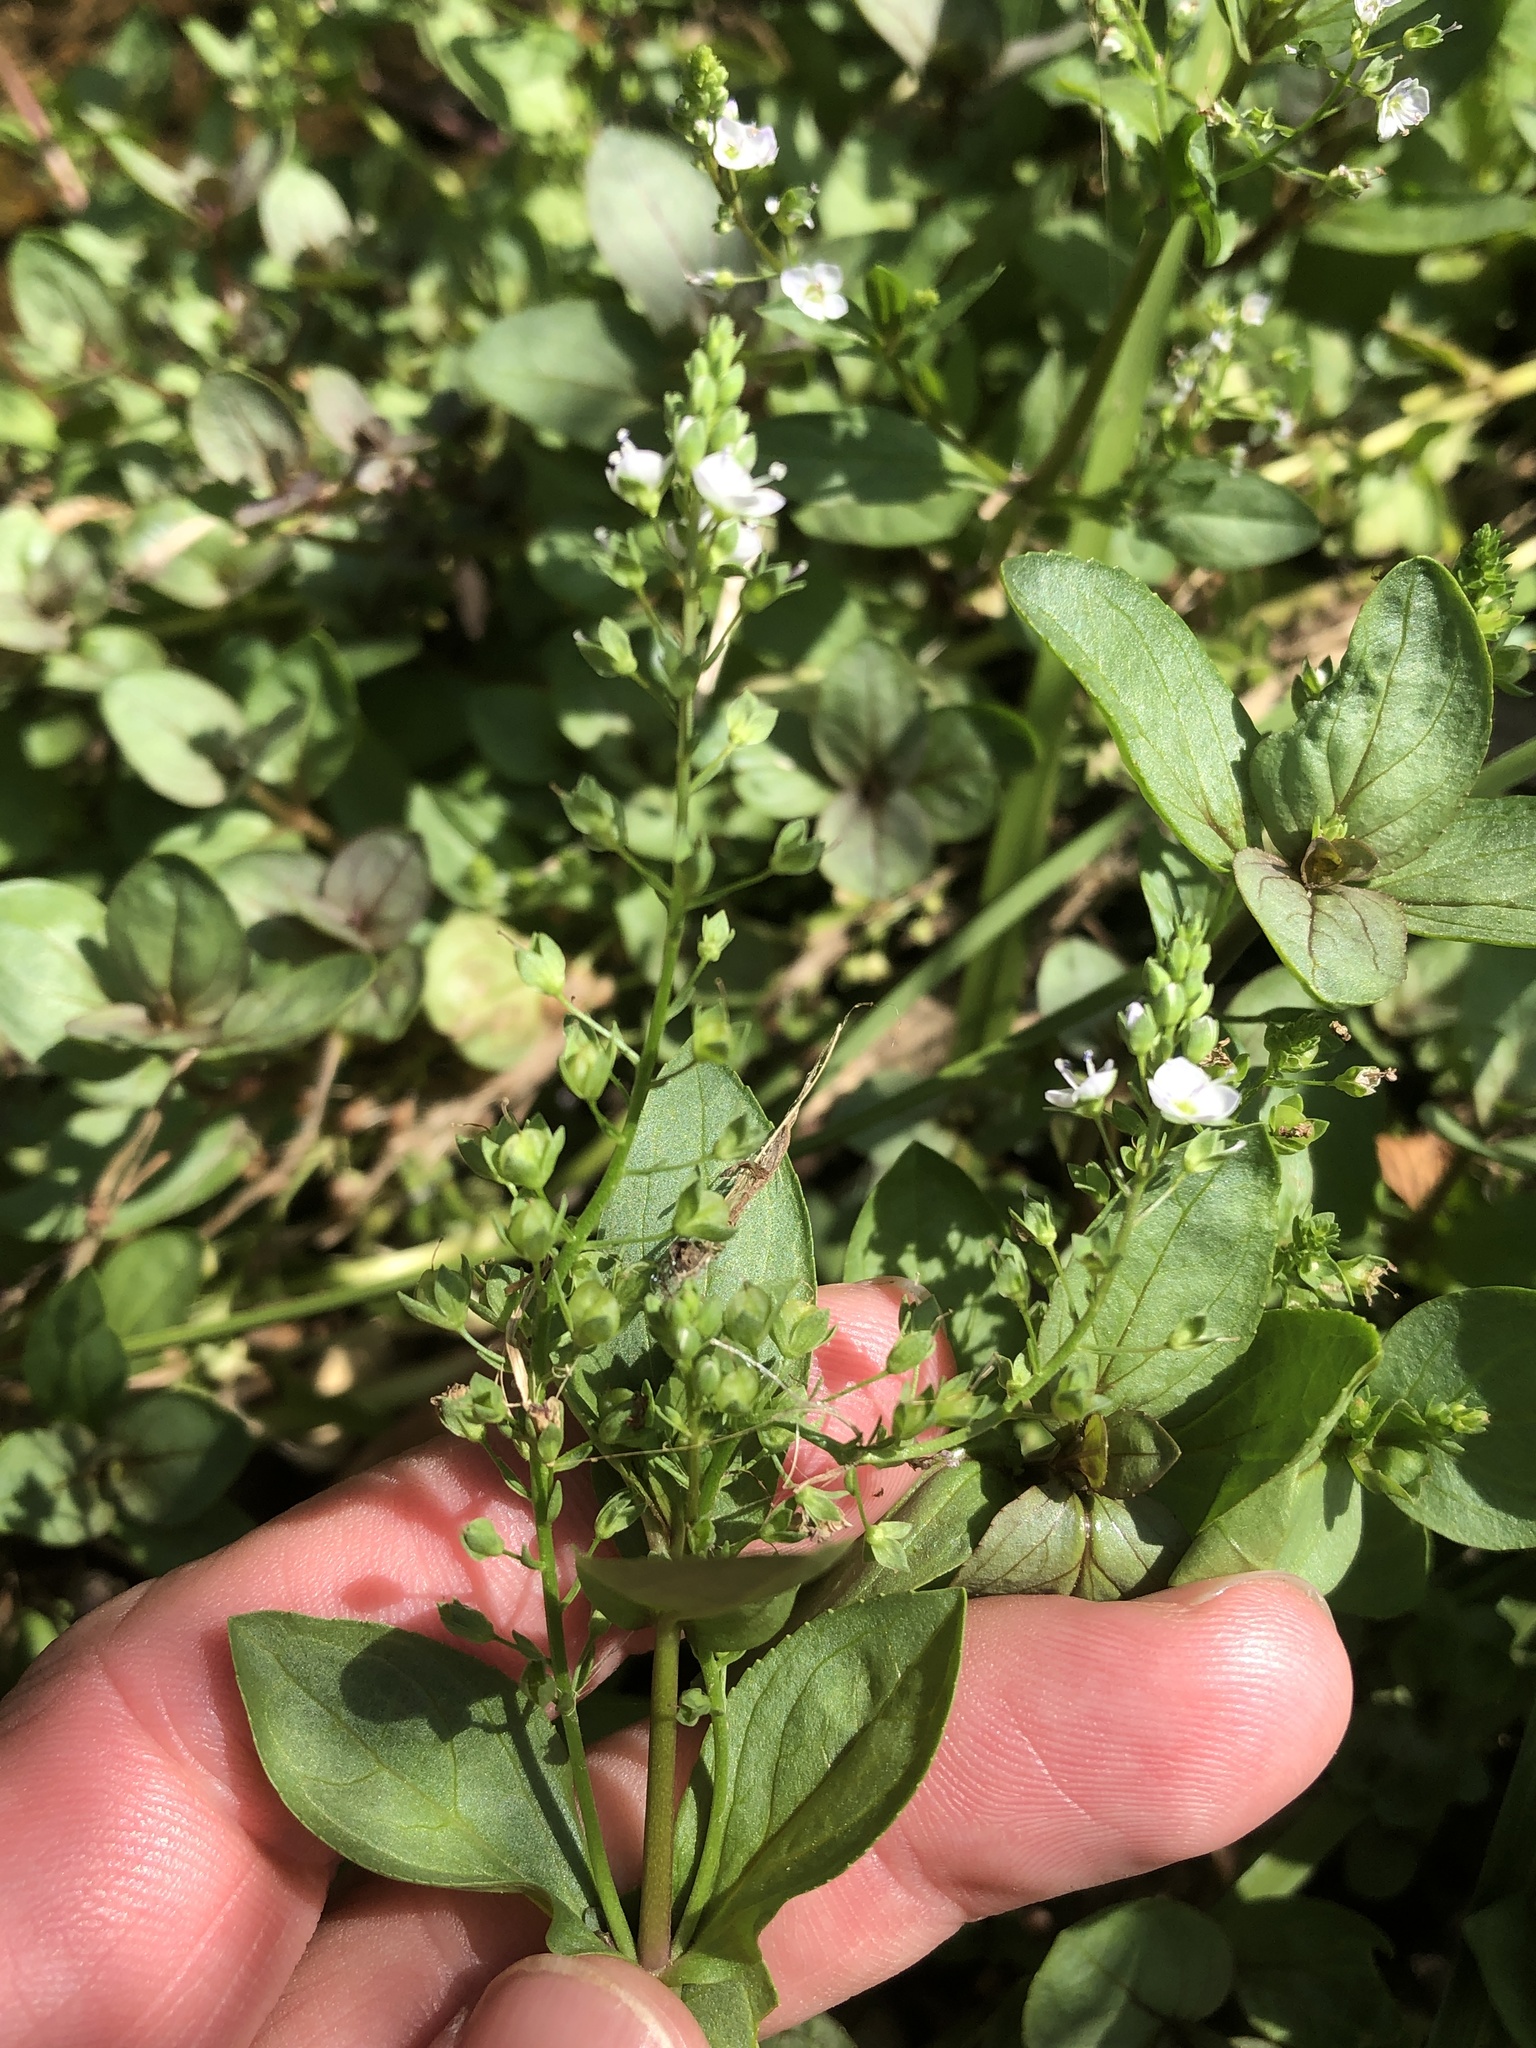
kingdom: Plantae
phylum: Tracheophyta
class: Magnoliopsida
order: Lamiales
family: Plantaginaceae
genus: Veronica
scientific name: Veronica anagallis-aquatica
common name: Water speedwell
